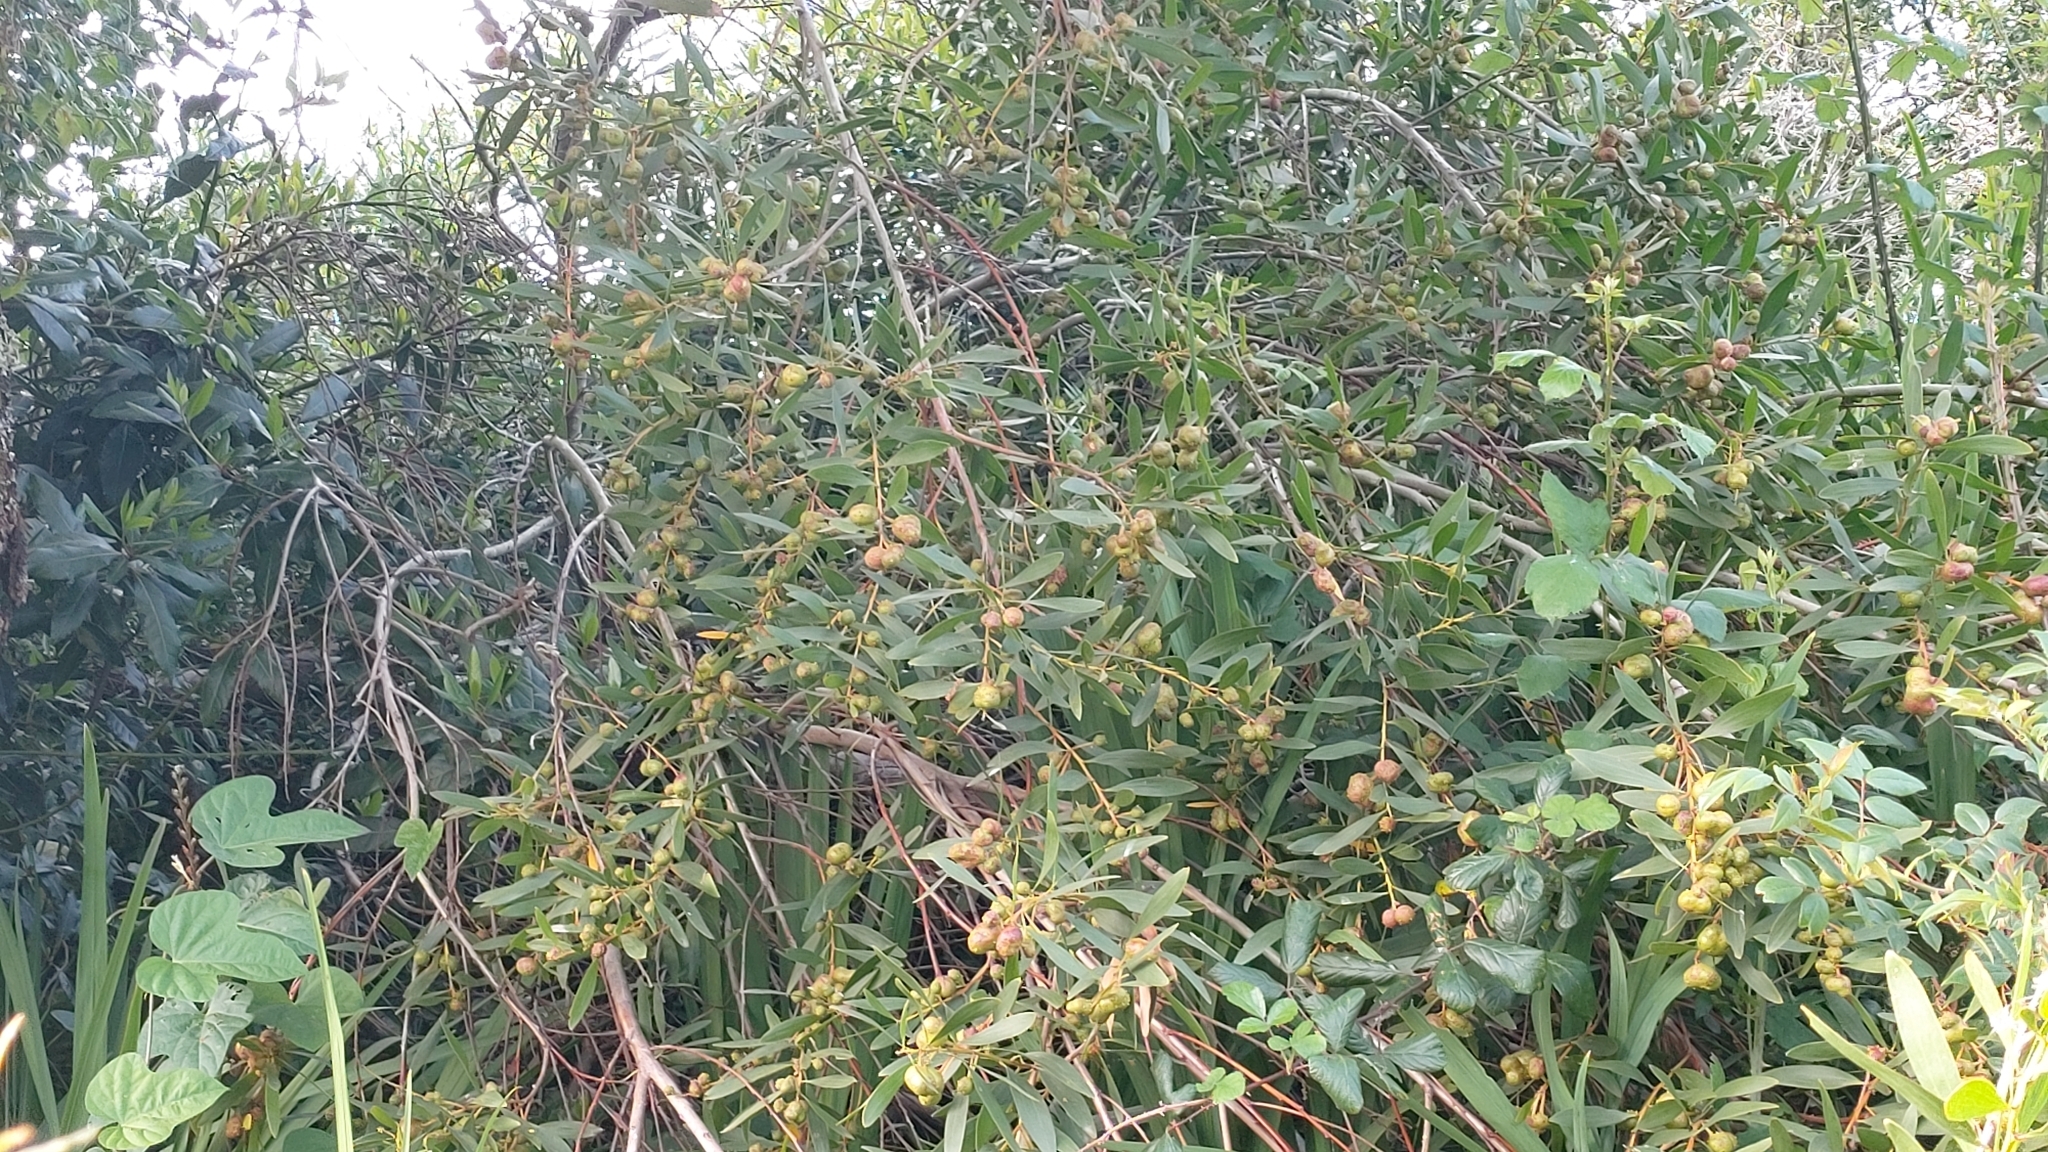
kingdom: Plantae
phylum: Tracheophyta
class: Magnoliopsida
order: Fabales
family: Fabaceae
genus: Acacia
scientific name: Acacia longifolia
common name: Sydney golden wattle
